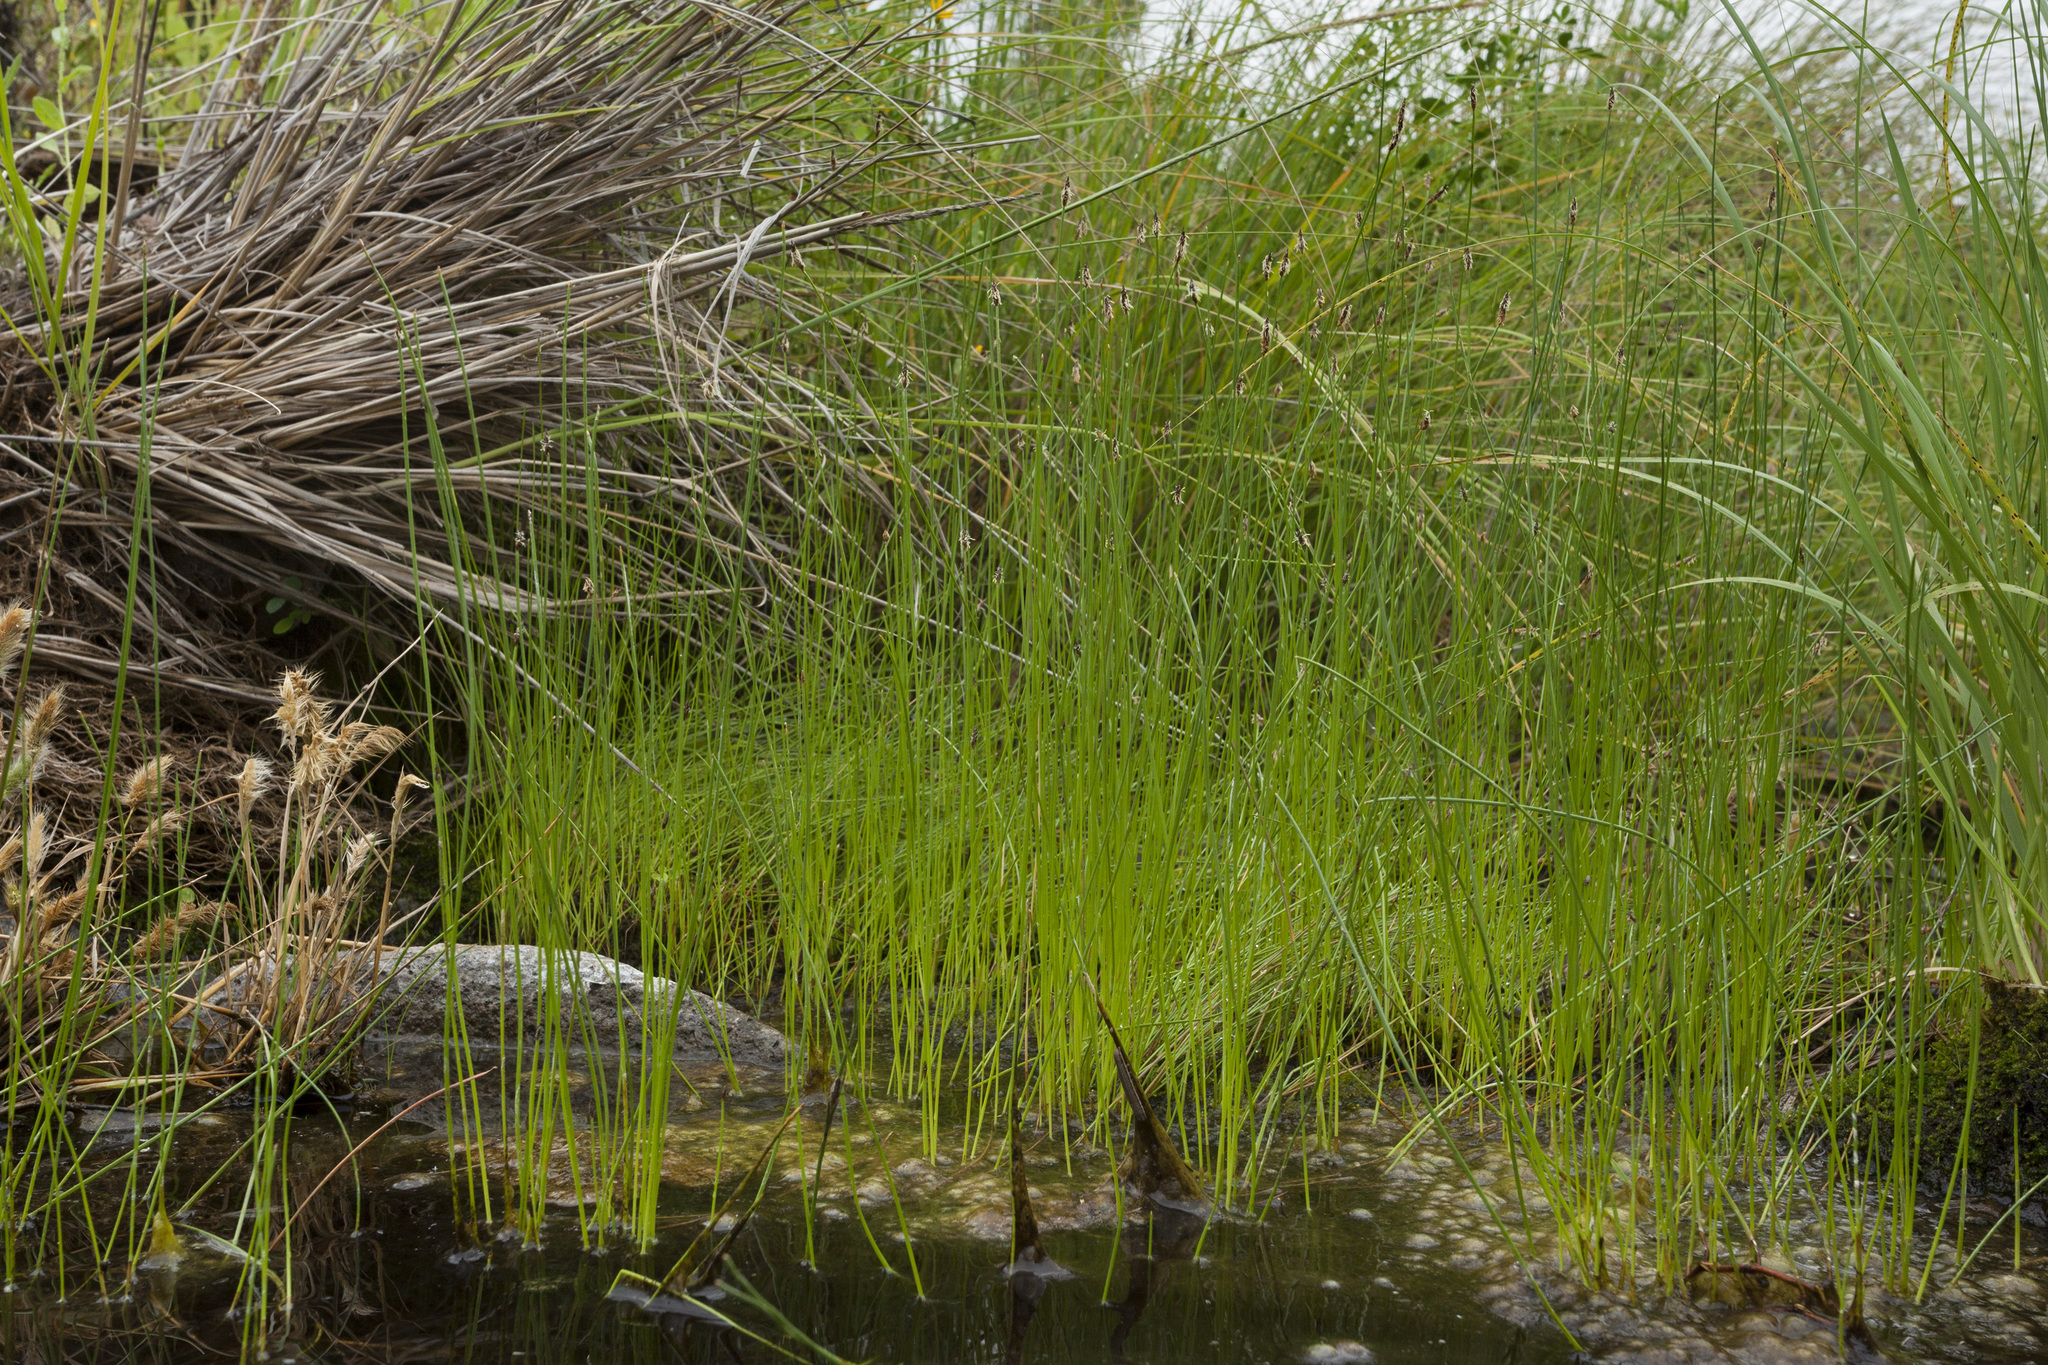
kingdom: Plantae
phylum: Tracheophyta
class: Liliopsida
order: Poales
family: Cyperaceae
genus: Eleocharis
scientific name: Eleocharis parishii
